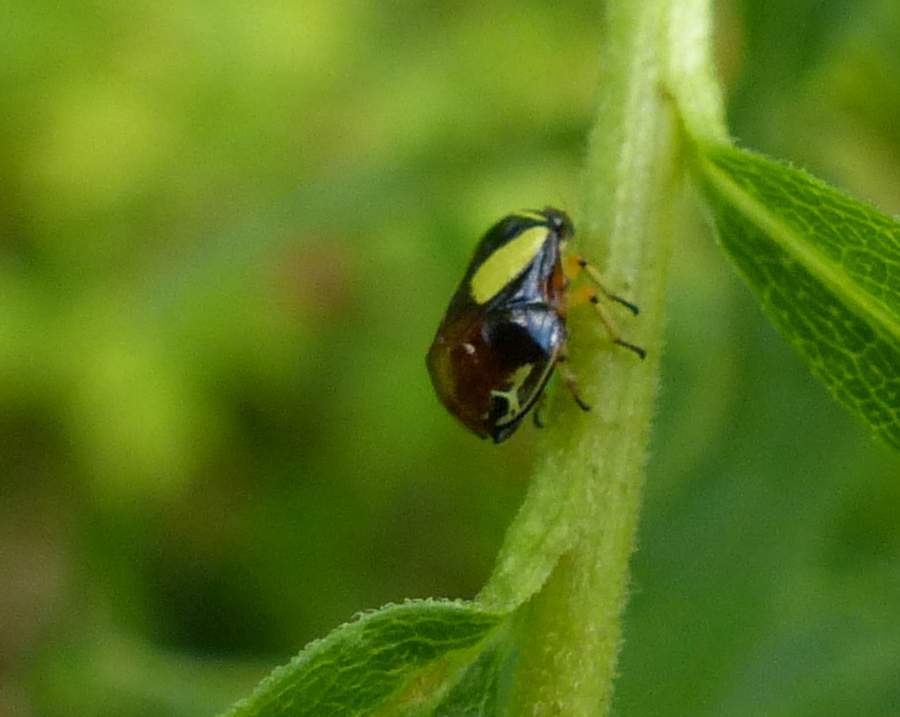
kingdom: Animalia
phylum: Arthropoda
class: Insecta
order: Hemiptera
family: Clastopteridae
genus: Clastoptera
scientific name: Clastoptera proteus
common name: Dogwood spittlebug
